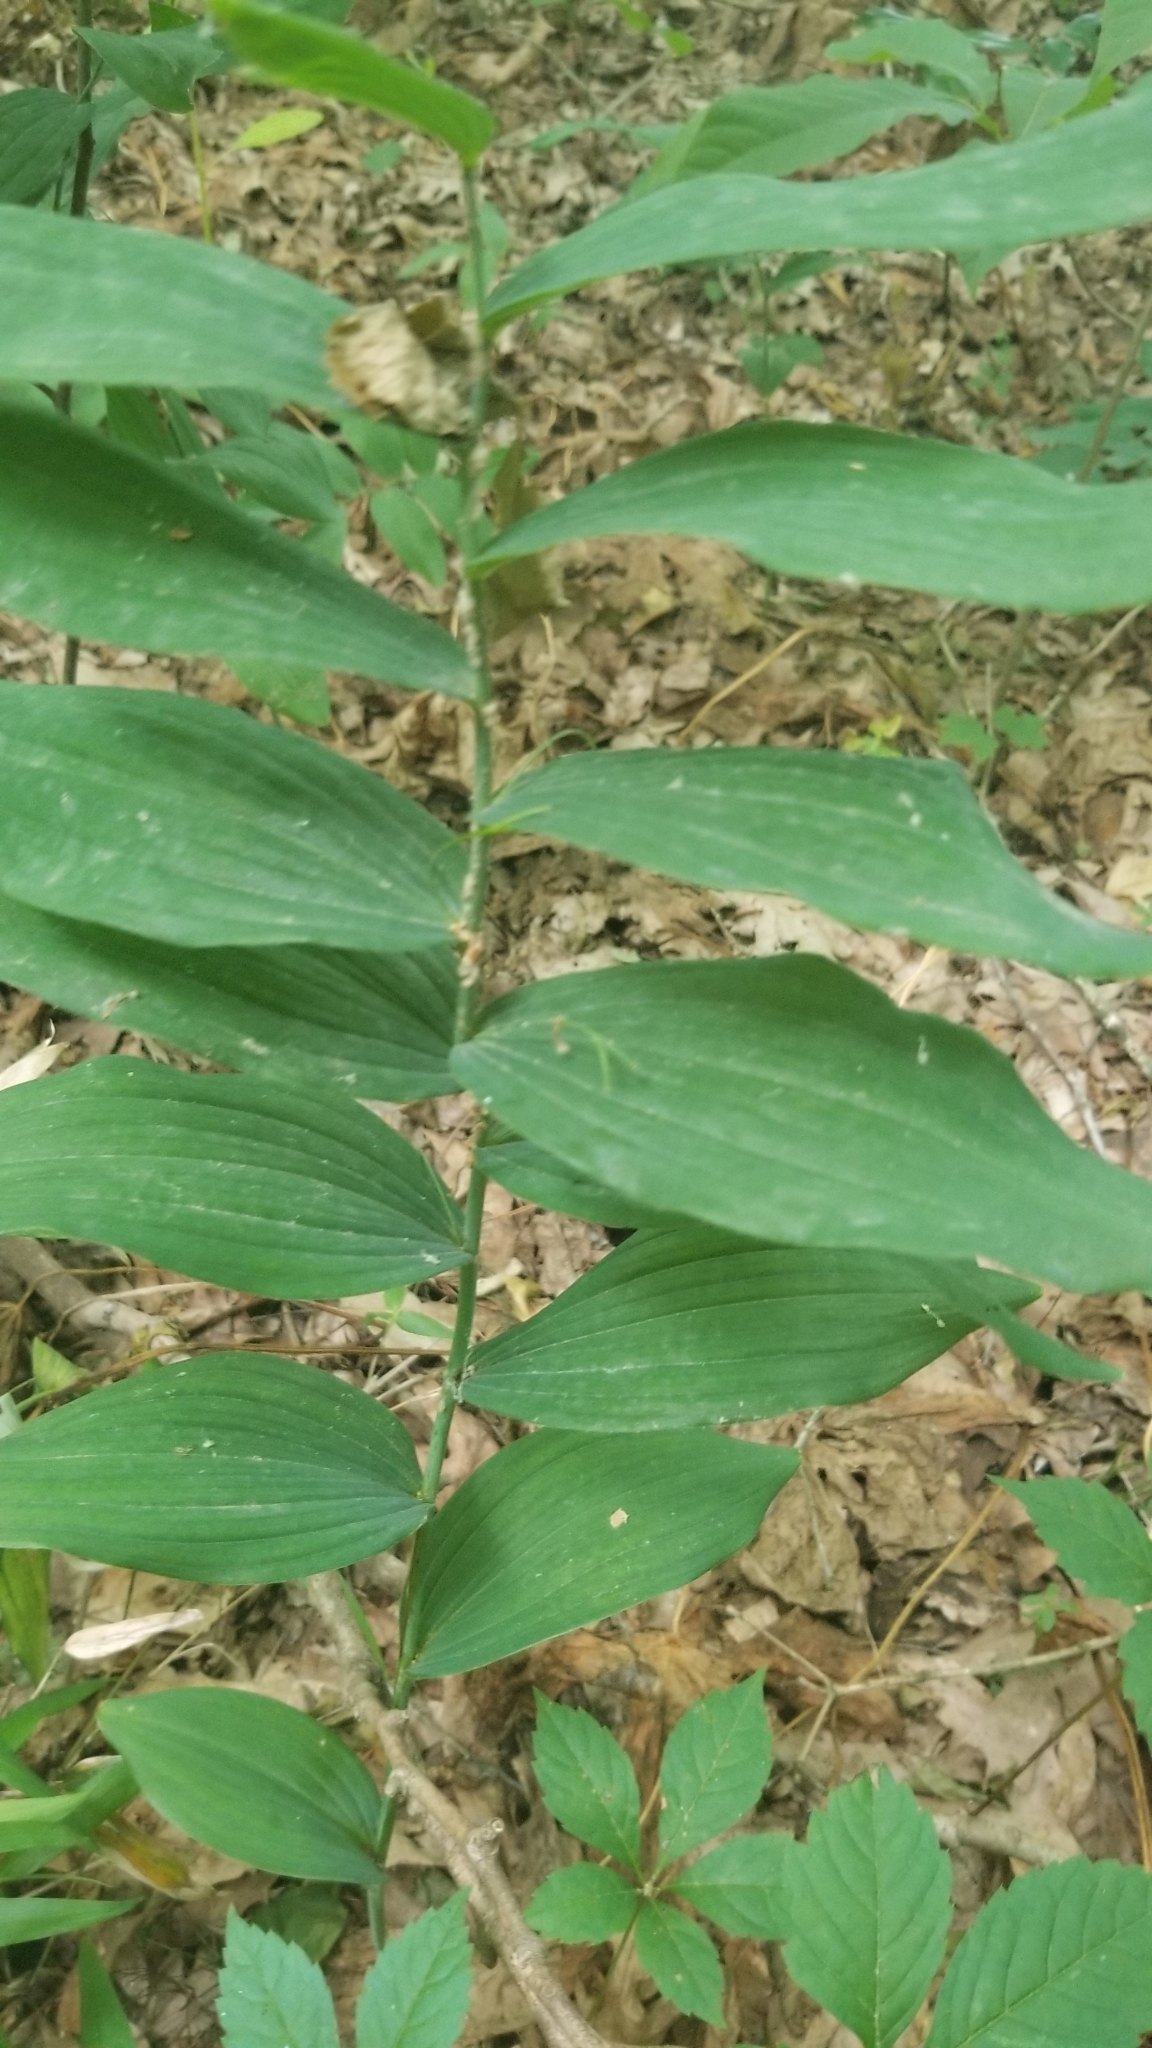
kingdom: Plantae
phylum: Tracheophyta
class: Liliopsida
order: Asparagales
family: Asparagaceae
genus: Polygonatum
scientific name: Polygonatum biflorum
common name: American solomon's-seal
